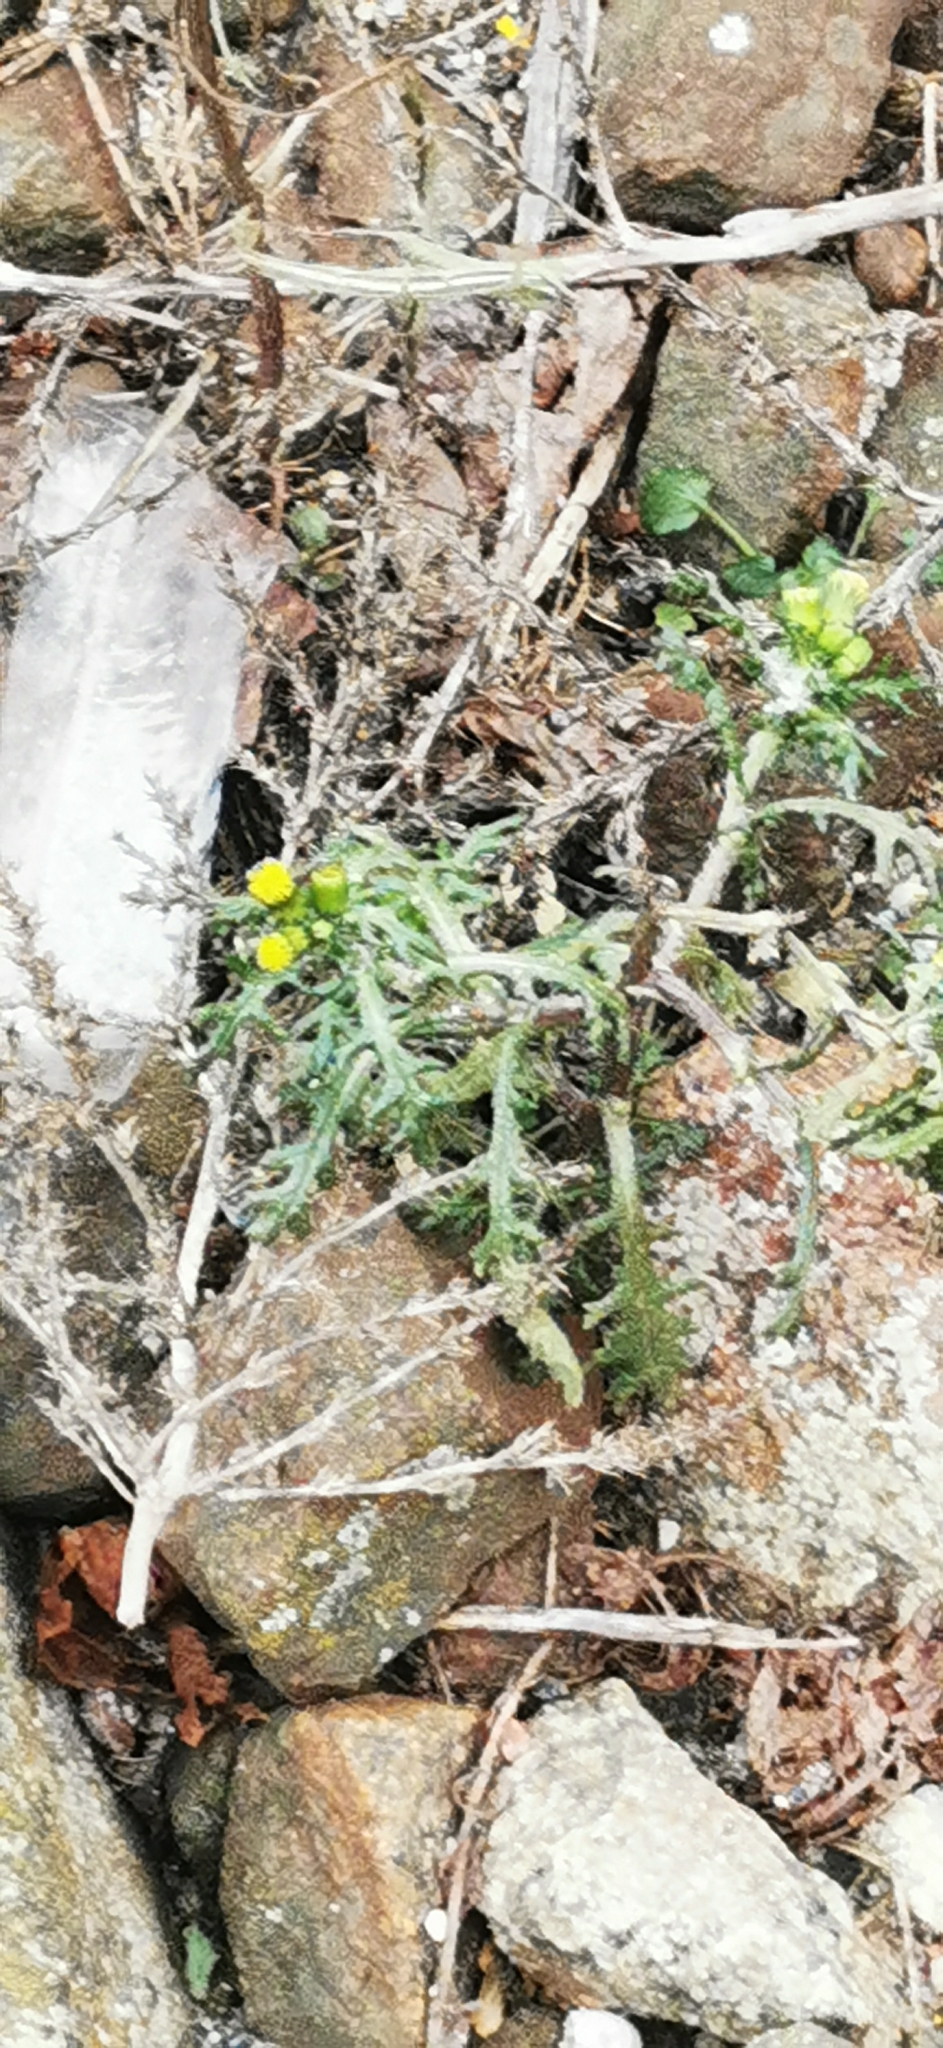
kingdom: Plantae
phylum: Tracheophyta
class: Magnoliopsida
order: Asterales
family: Asteraceae
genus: Senecio
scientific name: Senecio vulgaris
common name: Old-man-in-the-spring
